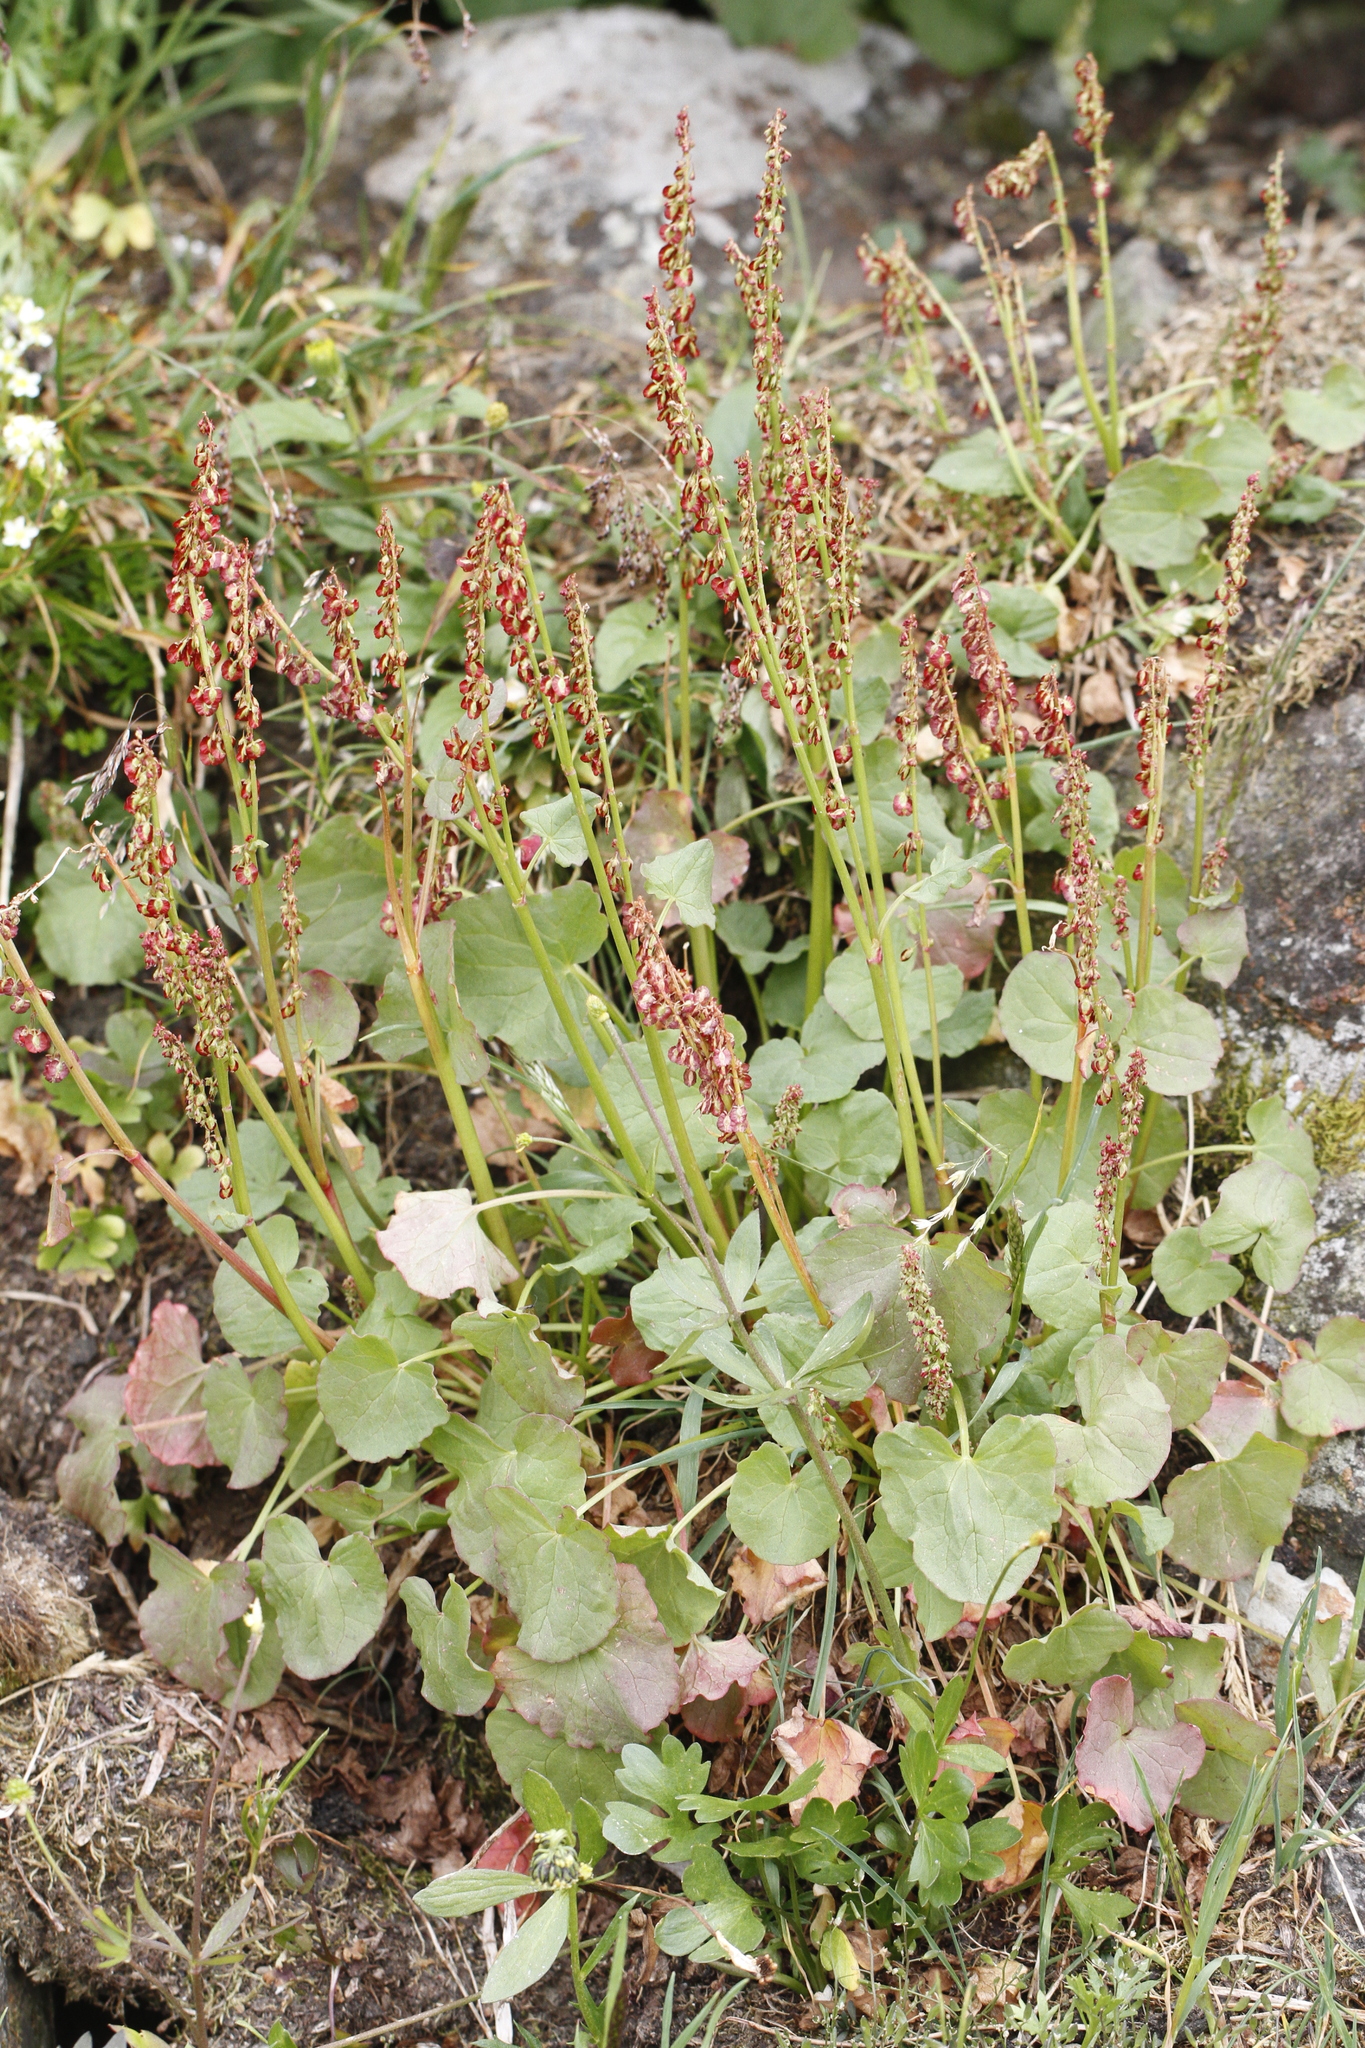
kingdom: Plantae
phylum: Tracheophyta
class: Magnoliopsida
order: Caryophyllales
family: Polygonaceae
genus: Oxyria
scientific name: Oxyria digyna
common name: Alpine mountain-sorrel
